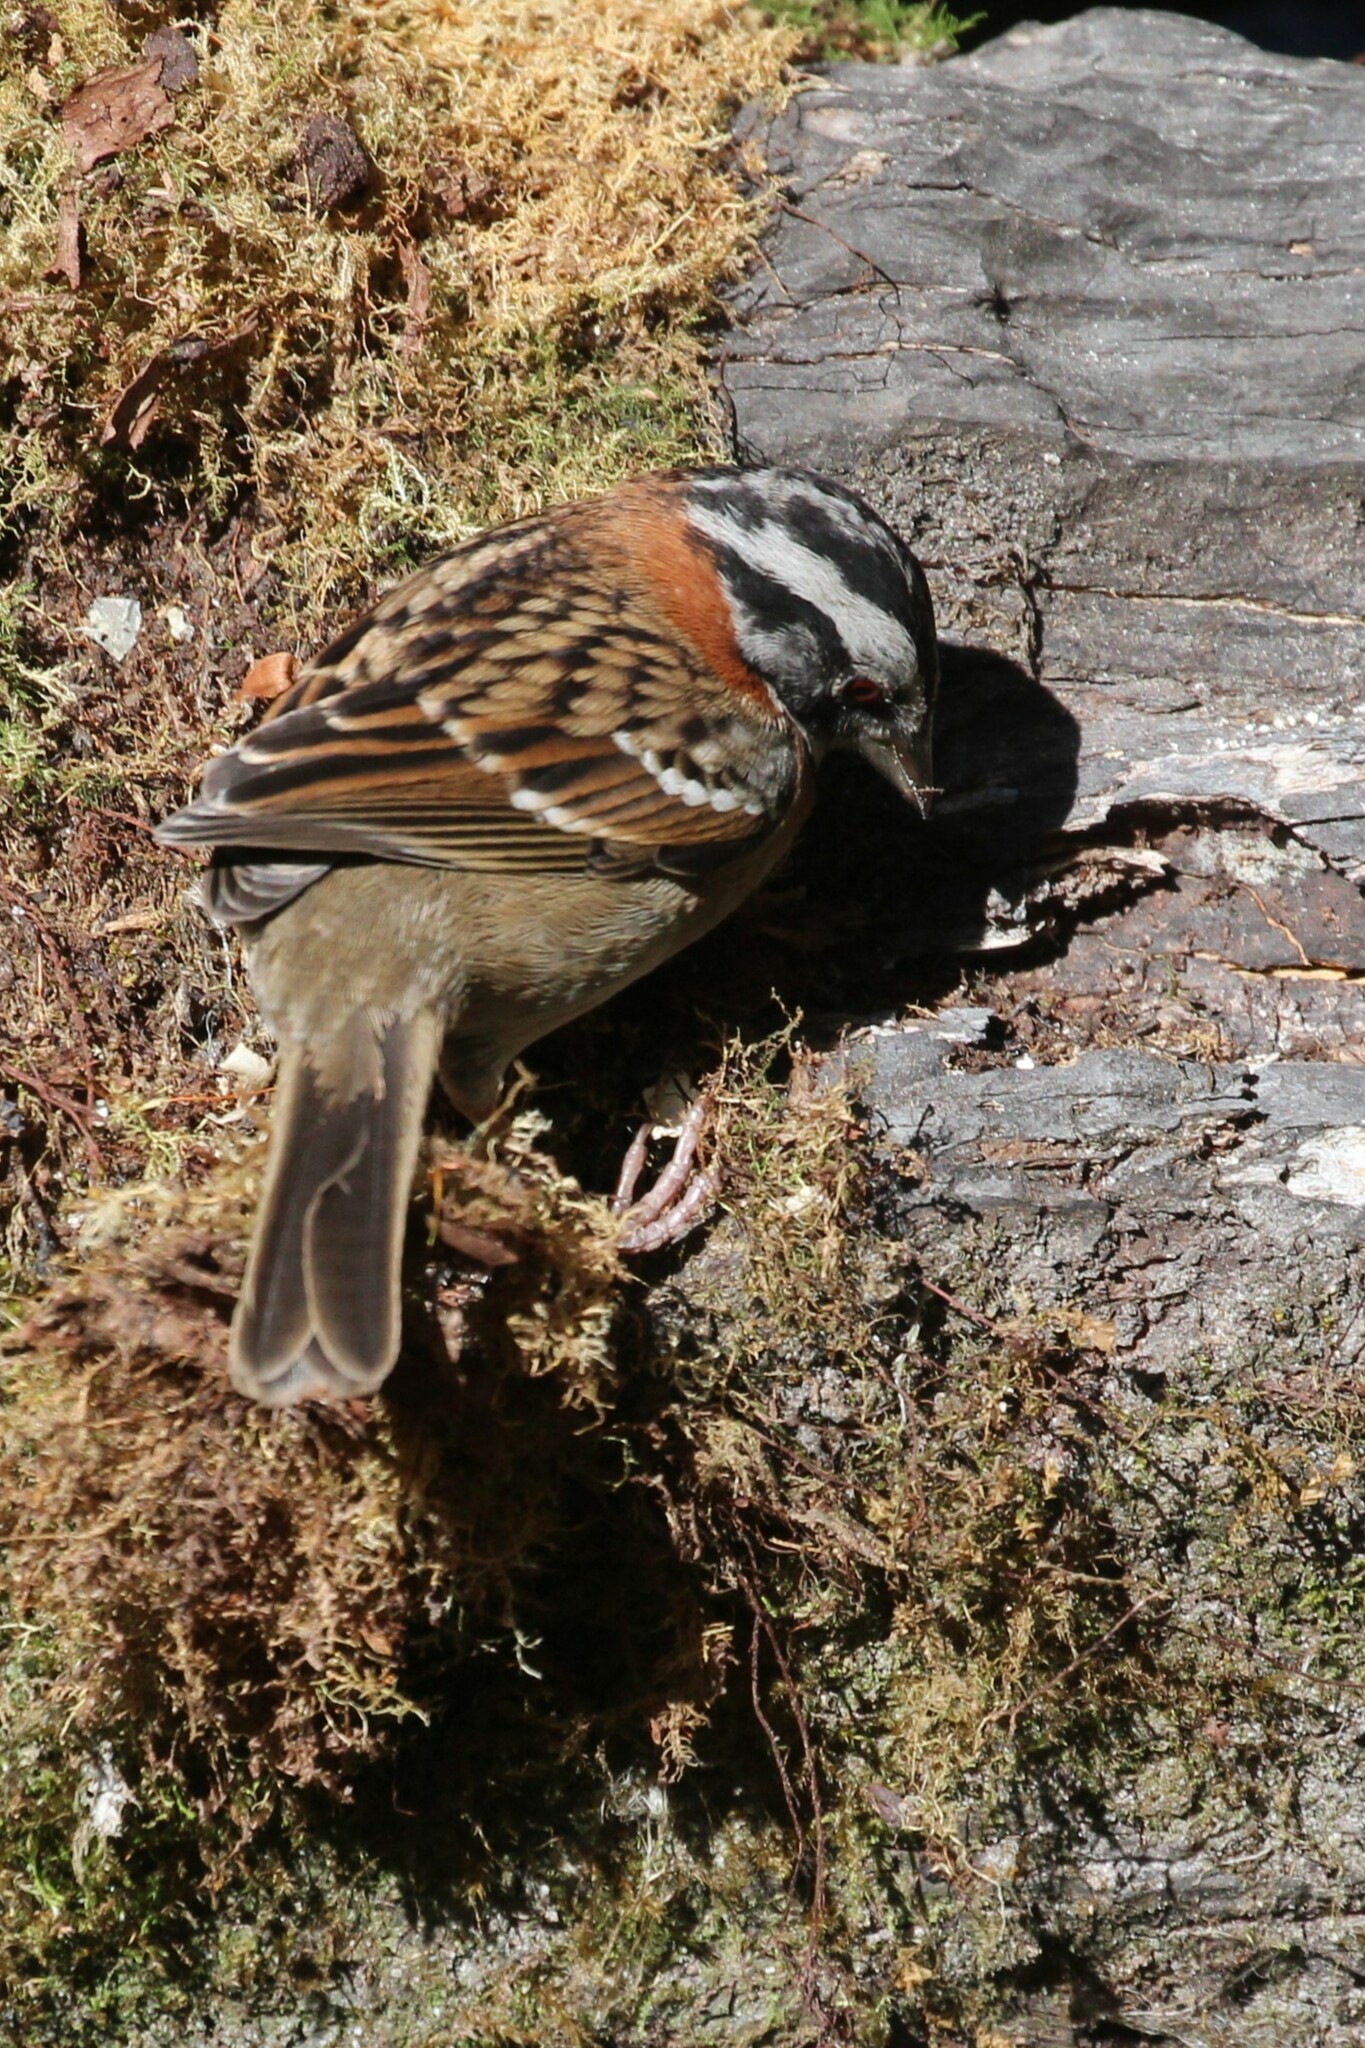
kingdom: Animalia
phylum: Chordata
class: Aves
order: Passeriformes
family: Passerellidae
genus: Zonotrichia
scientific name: Zonotrichia capensis
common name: Rufous-collared sparrow
